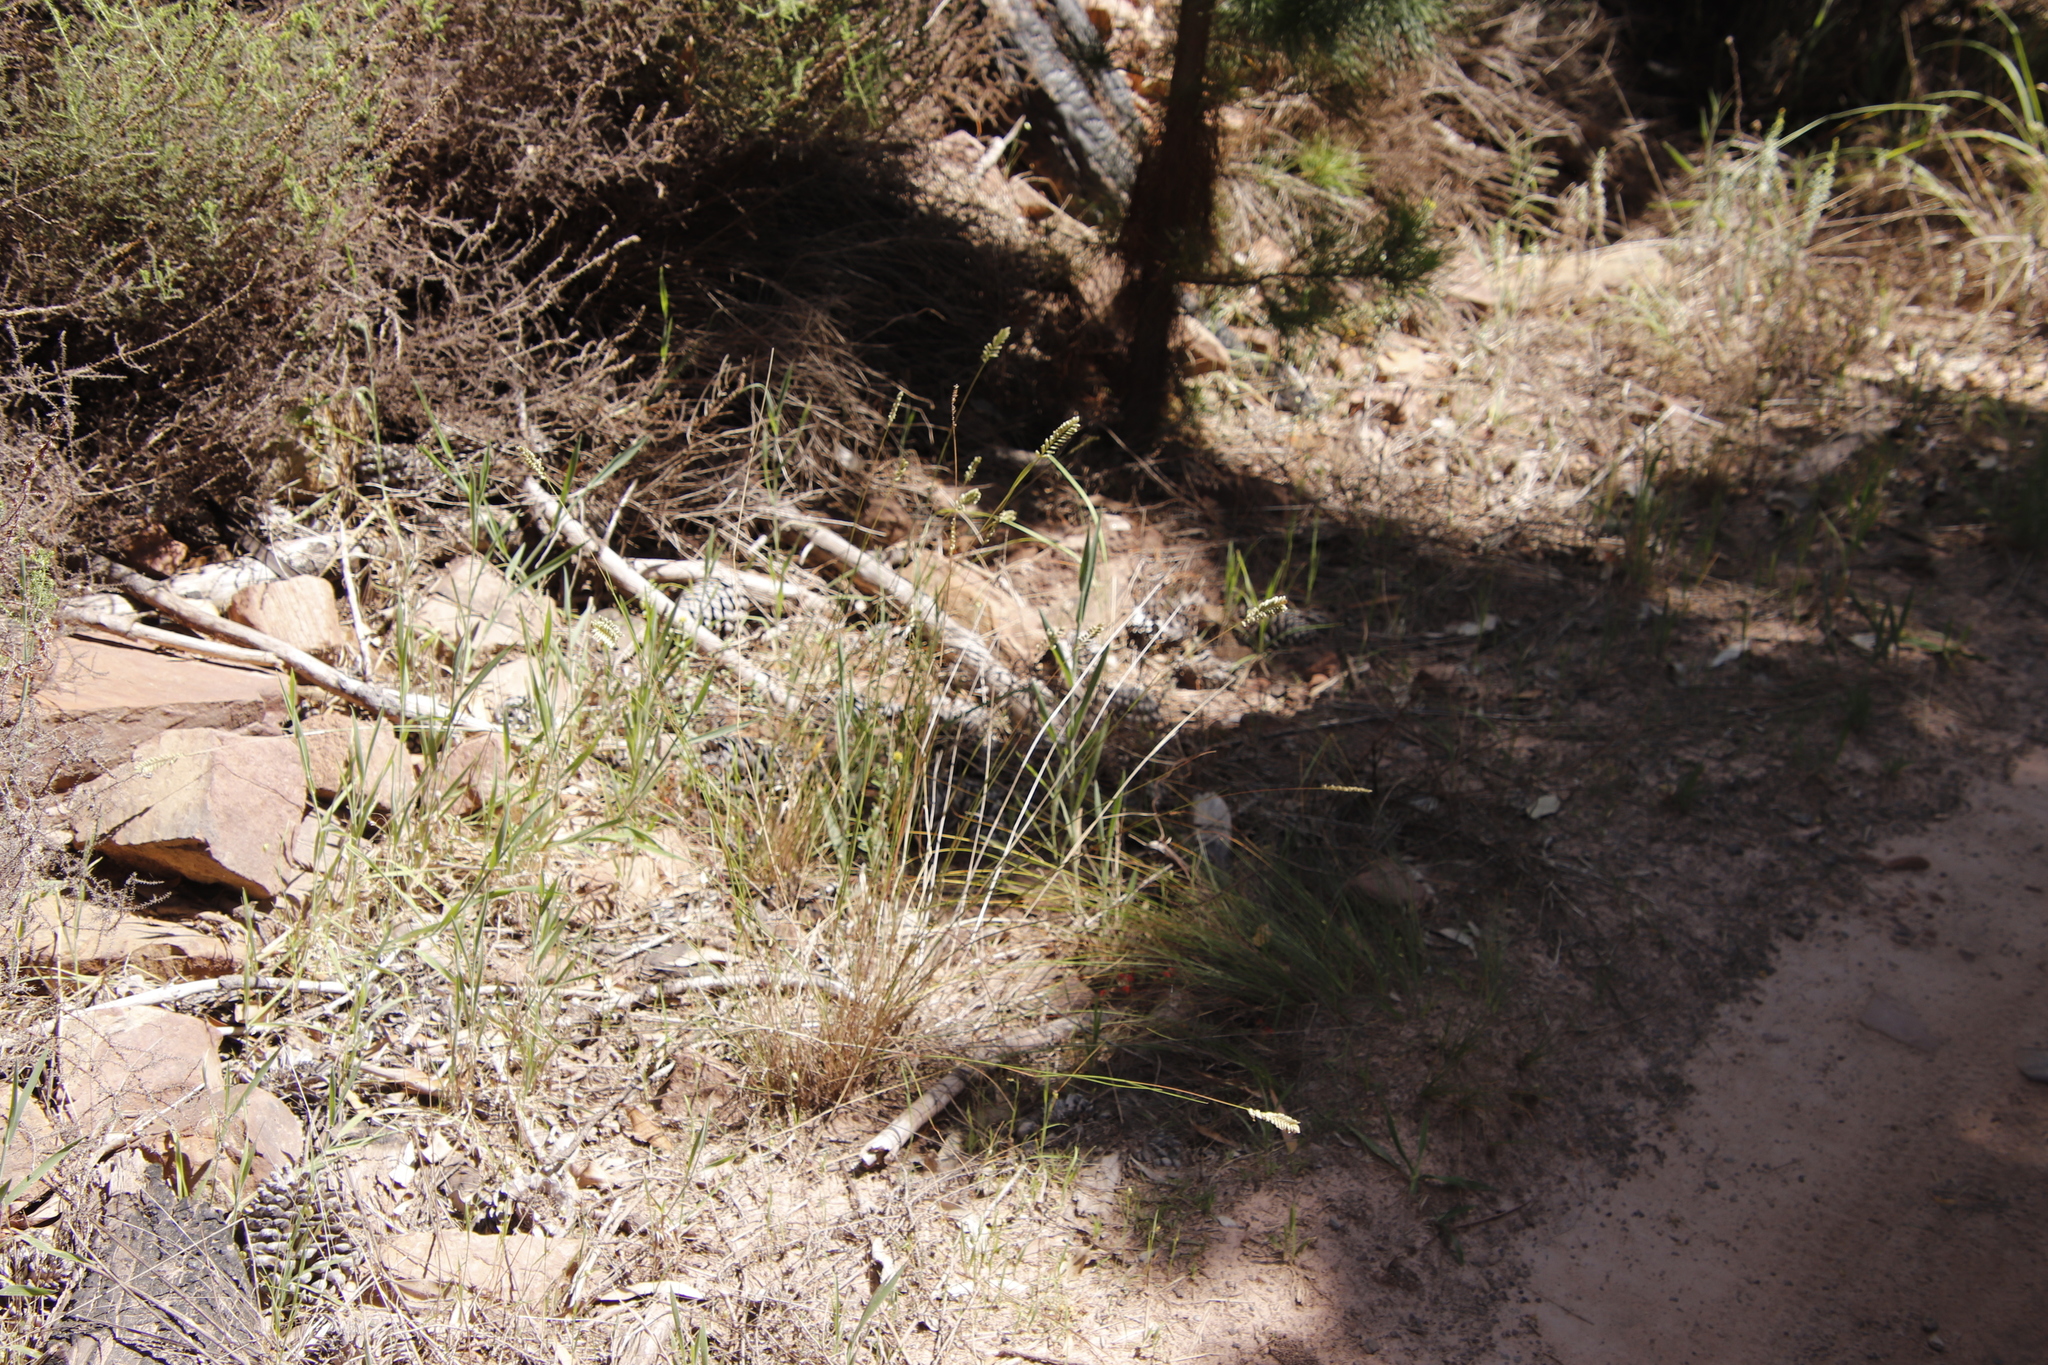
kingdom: Plantae
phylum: Tracheophyta
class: Liliopsida
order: Poales
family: Poaceae
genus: Tribolium
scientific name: Tribolium uniolae
